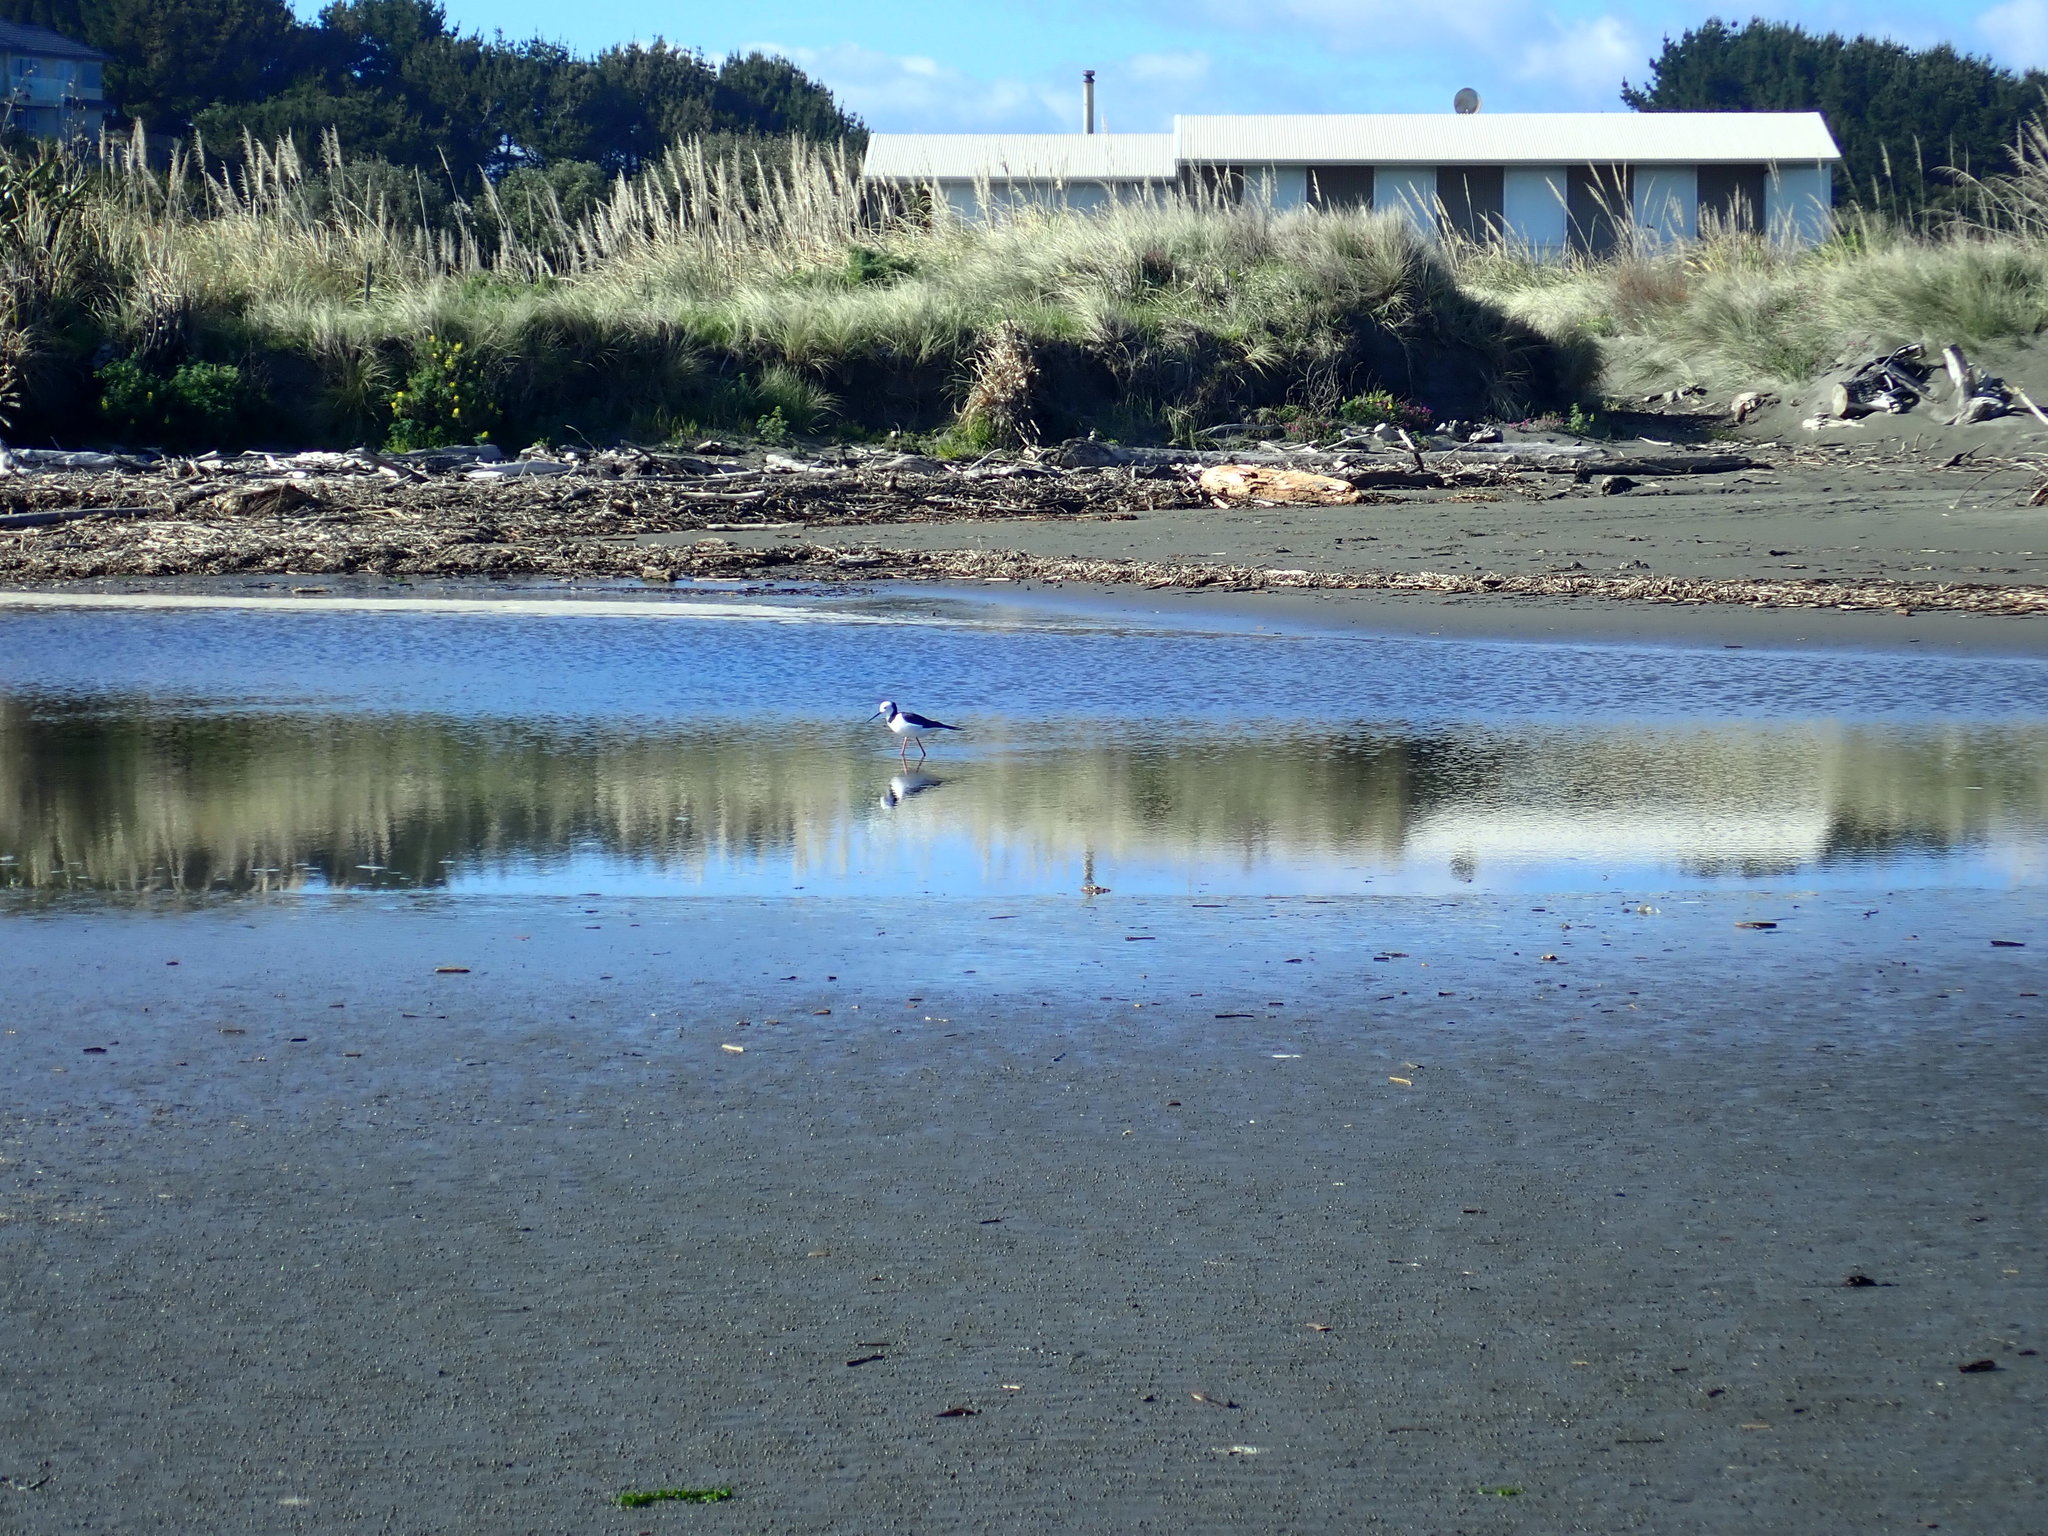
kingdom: Animalia
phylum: Chordata
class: Aves
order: Charadriiformes
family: Recurvirostridae
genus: Himantopus
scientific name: Himantopus leucocephalus
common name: White-headed stilt
